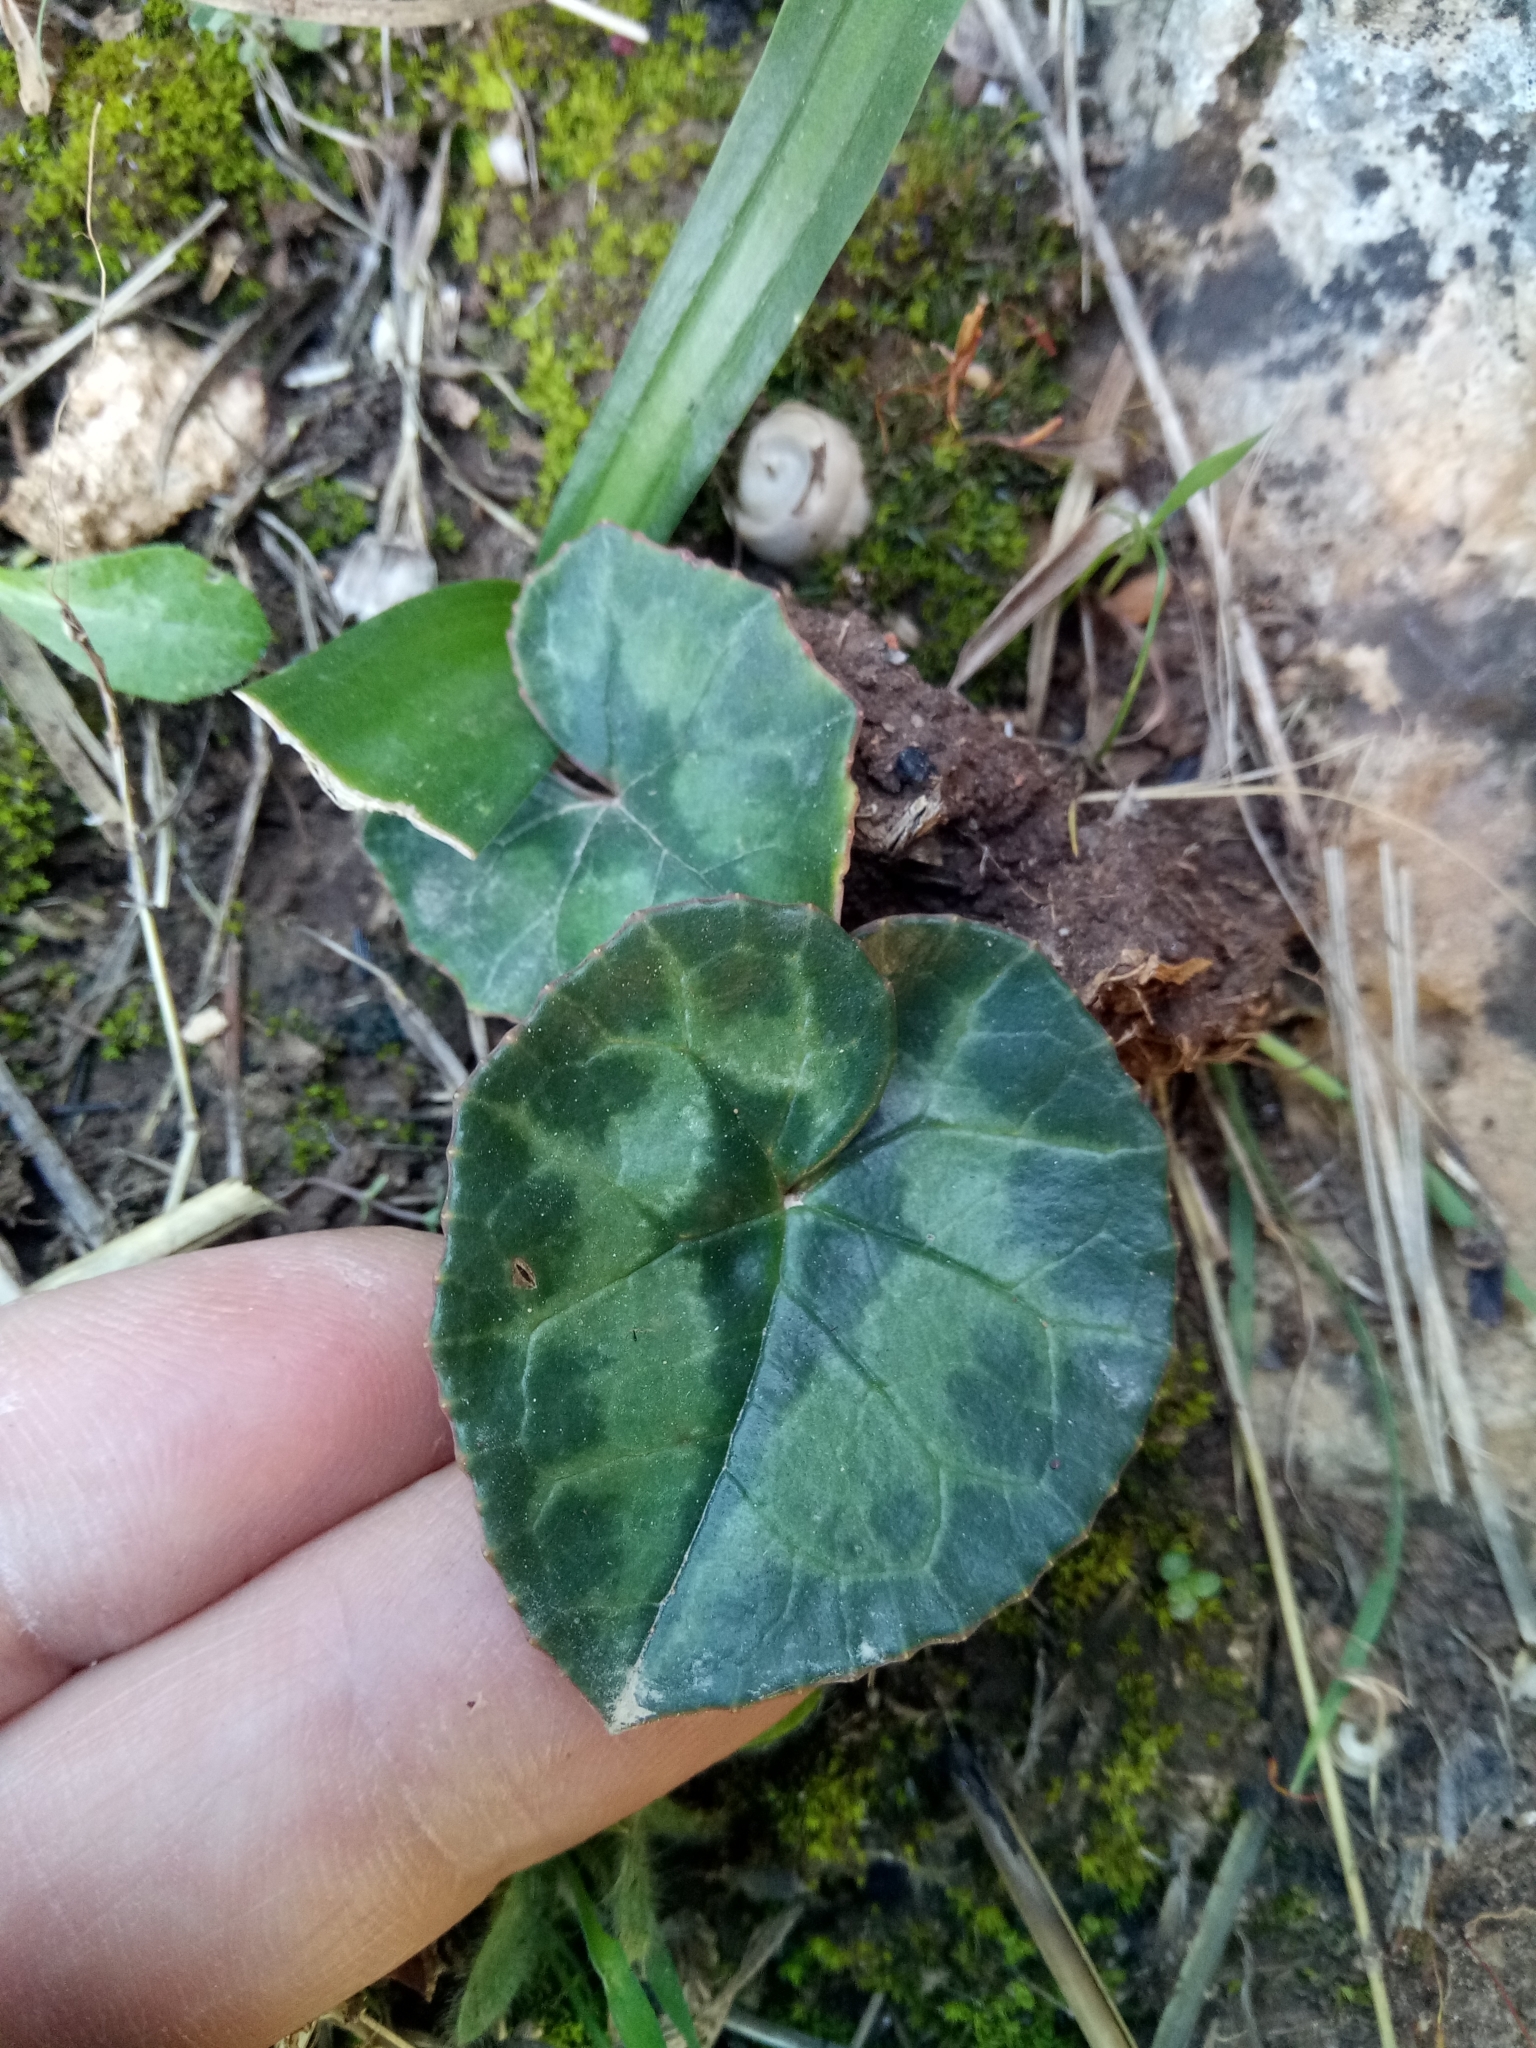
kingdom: Plantae
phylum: Tracheophyta
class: Magnoliopsida
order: Ericales
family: Primulaceae
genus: Cyclamen
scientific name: Cyclamen africanum
